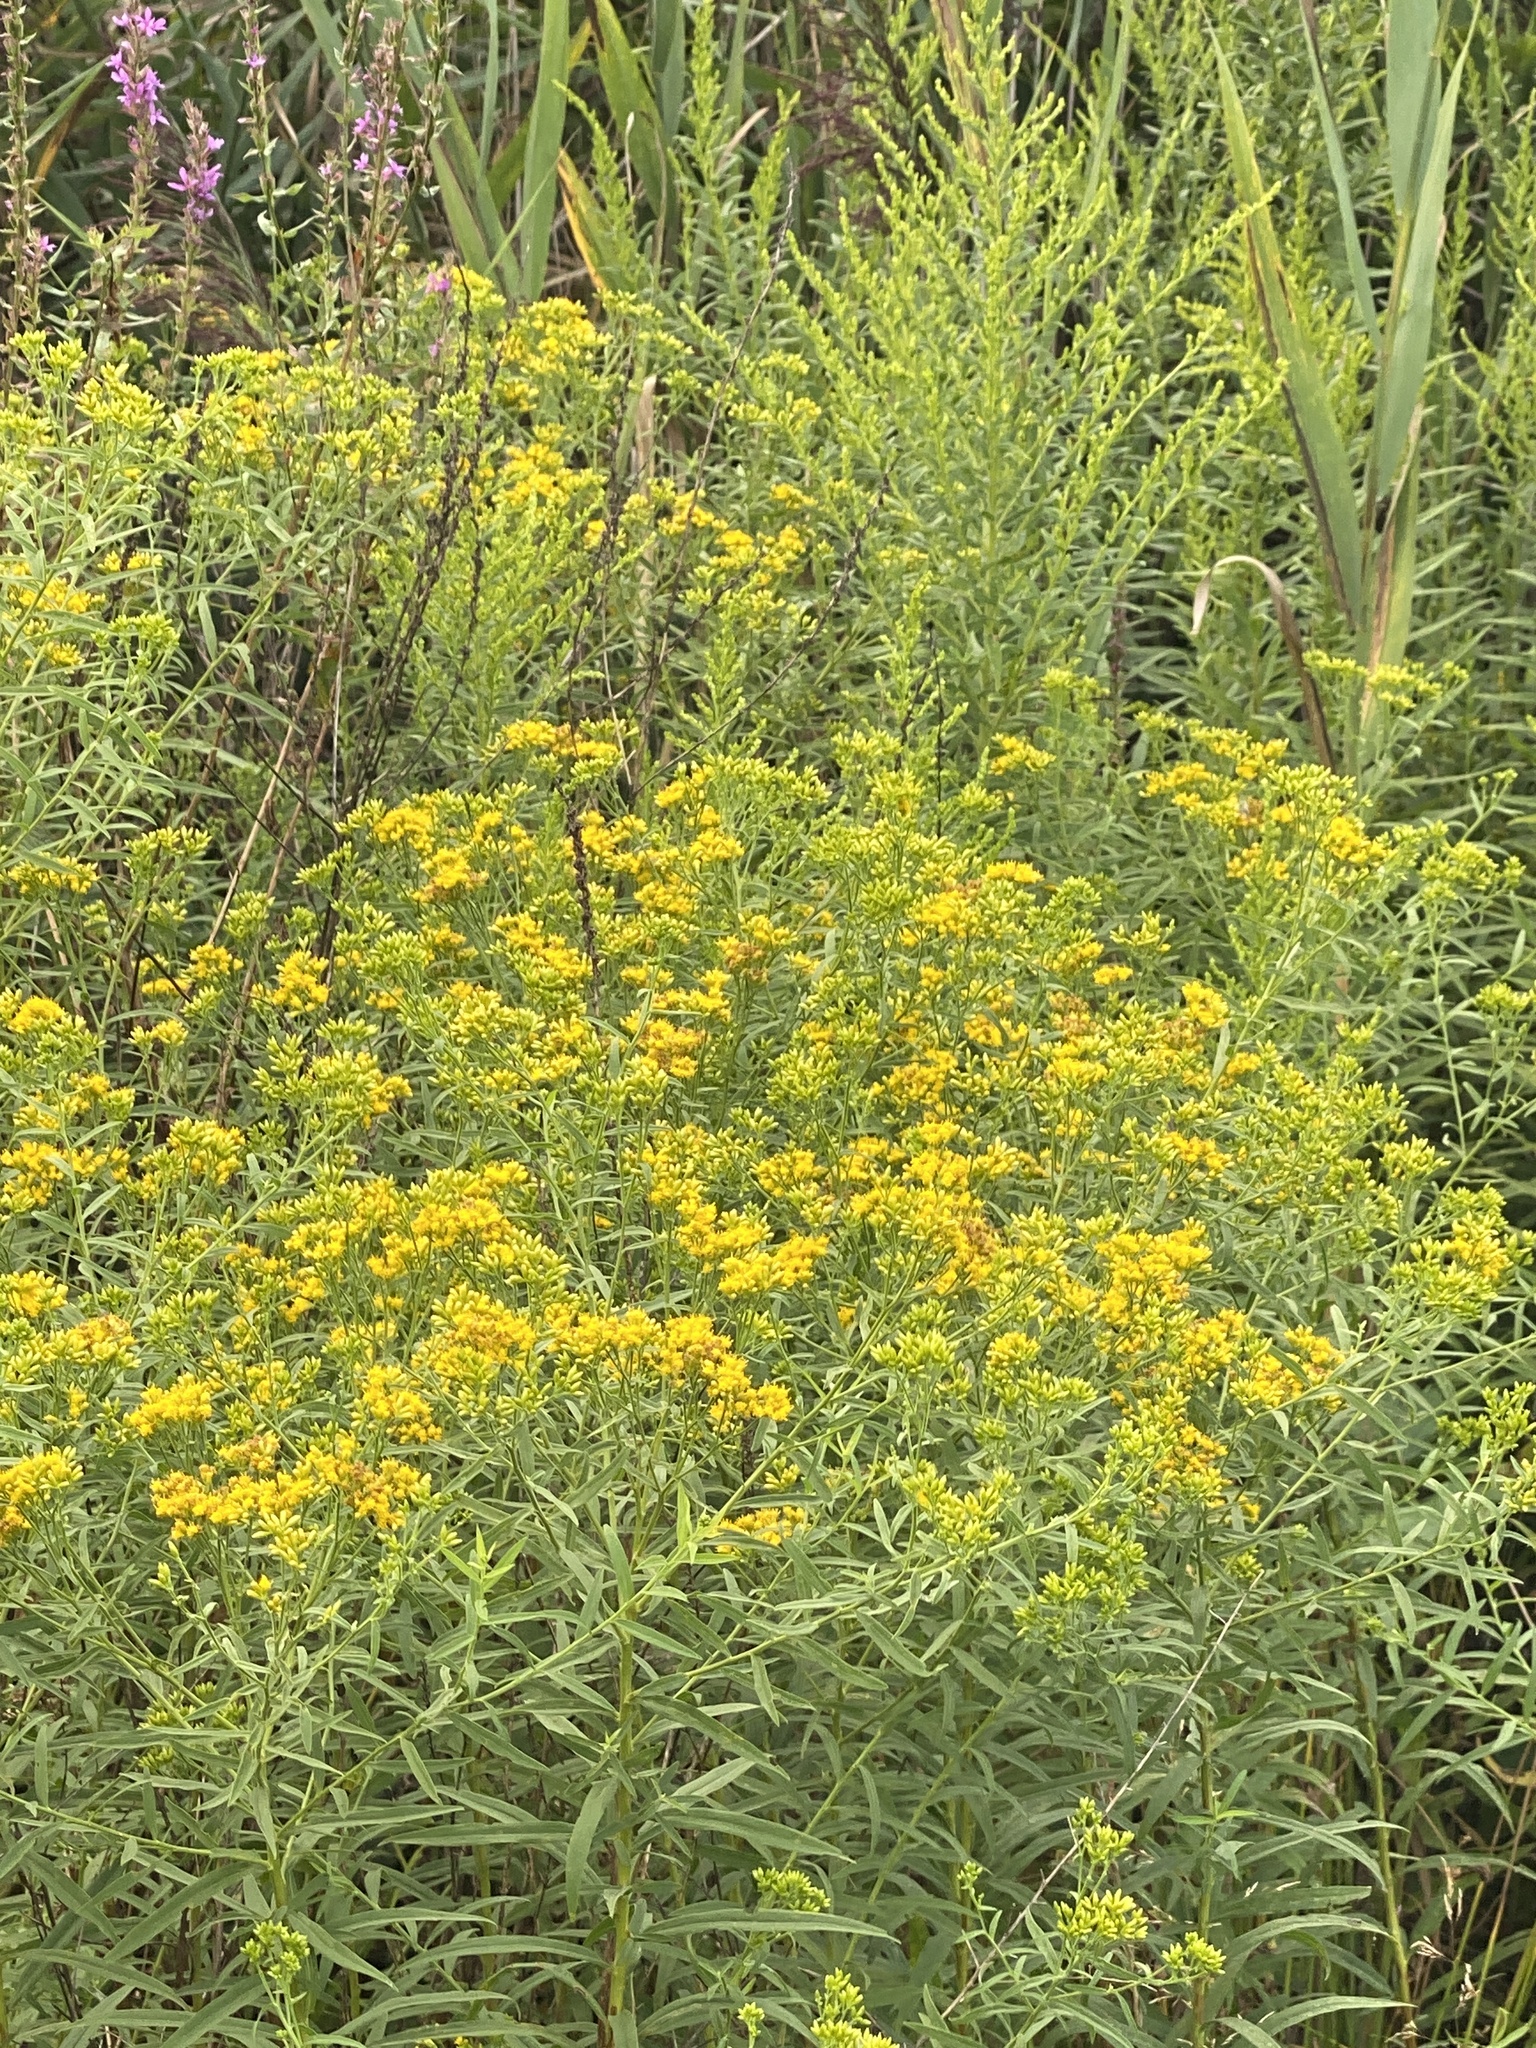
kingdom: Plantae
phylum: Tracheophyta
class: Magnoliopsida
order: Asterales
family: Asteraceae
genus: Euthamia
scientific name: Euthamia graminifolia
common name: Common goldentop
